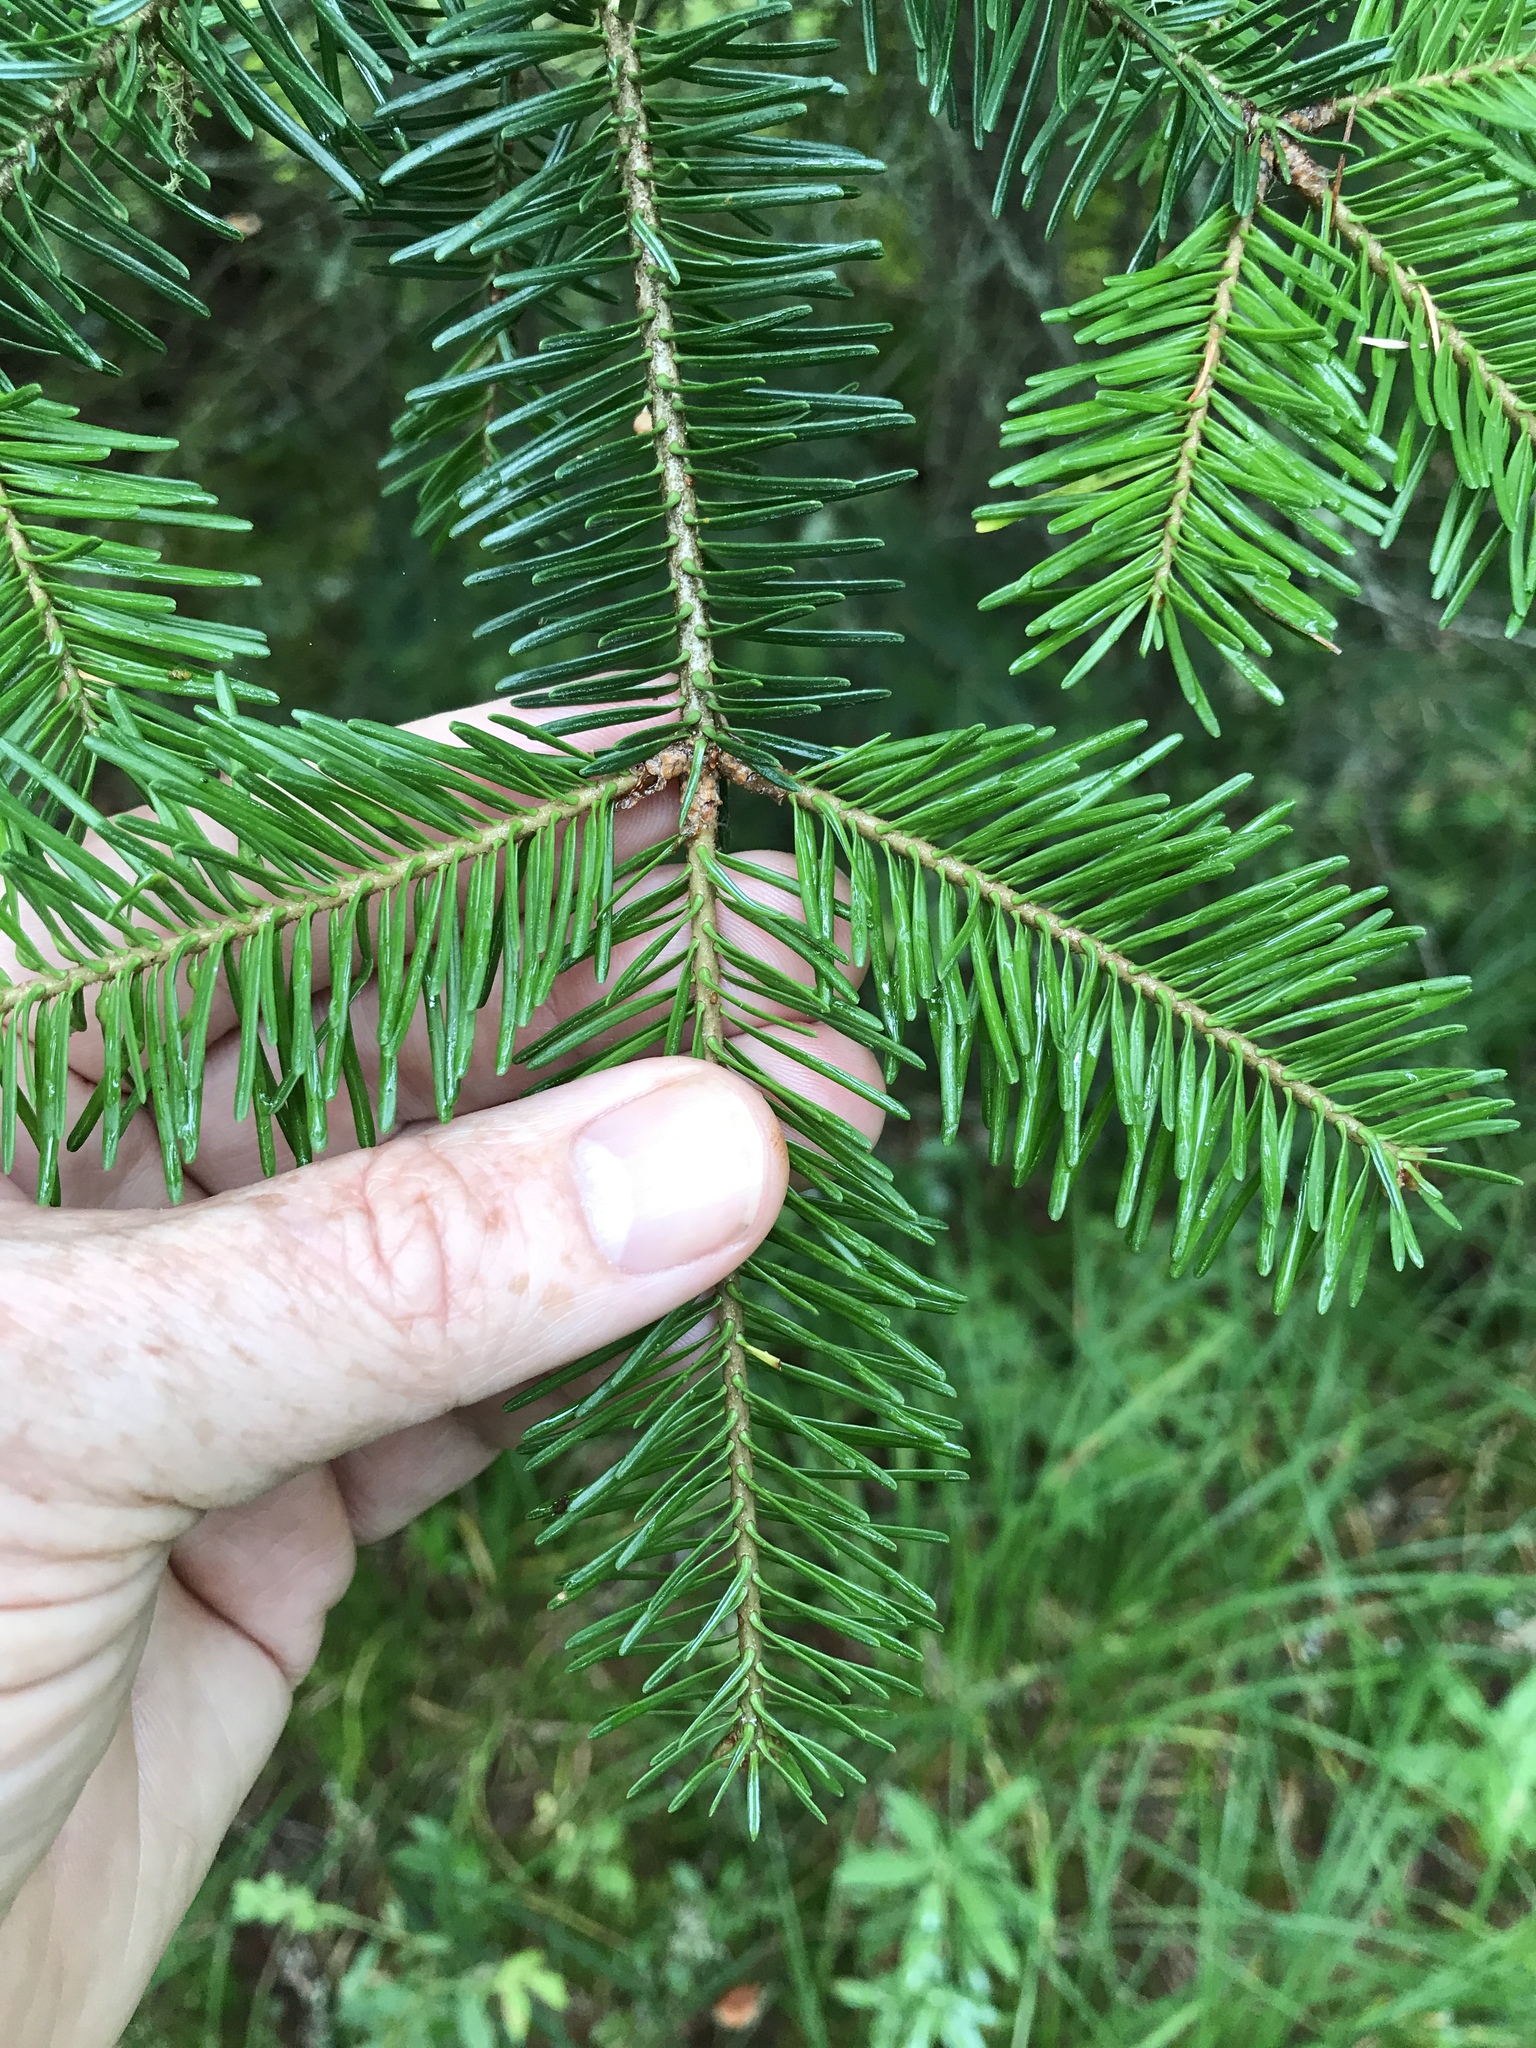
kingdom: Plantae
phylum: Tracheophyta
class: Pinopsida
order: Pinales
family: Pinaceae
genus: Abies
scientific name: Abies balsamea
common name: Balsam fir
